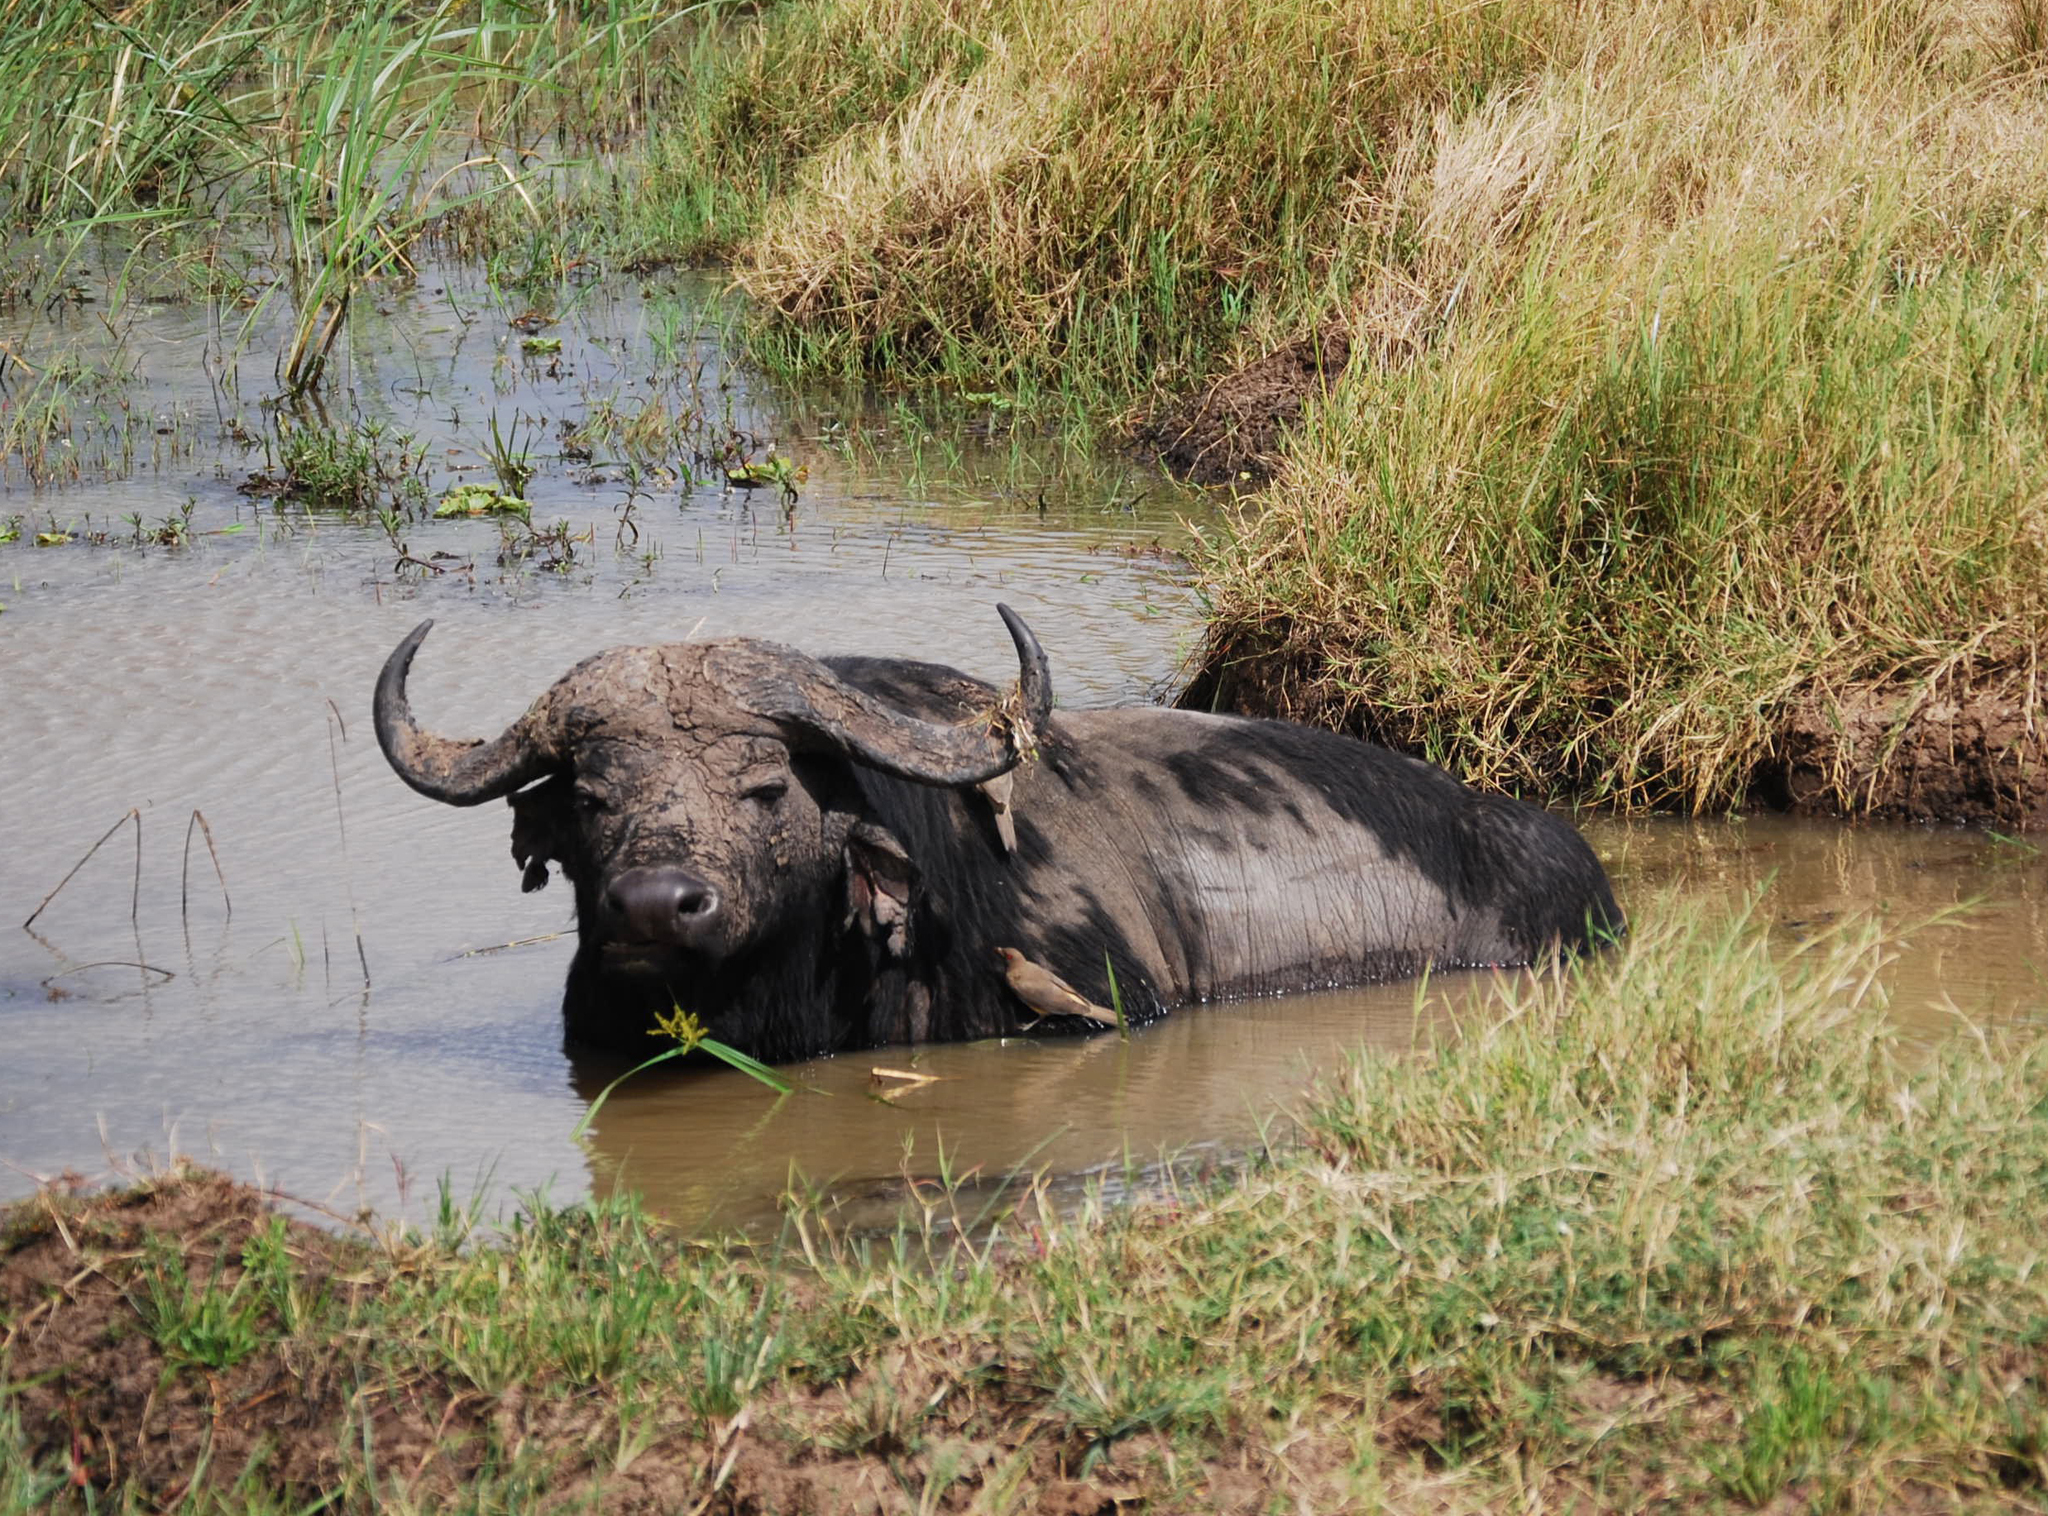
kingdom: Animalia
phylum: Chordata
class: Mammalia
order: Artiodactyla
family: Bovidae
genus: Syncerus
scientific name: Syncerus caffer
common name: African buffalo
